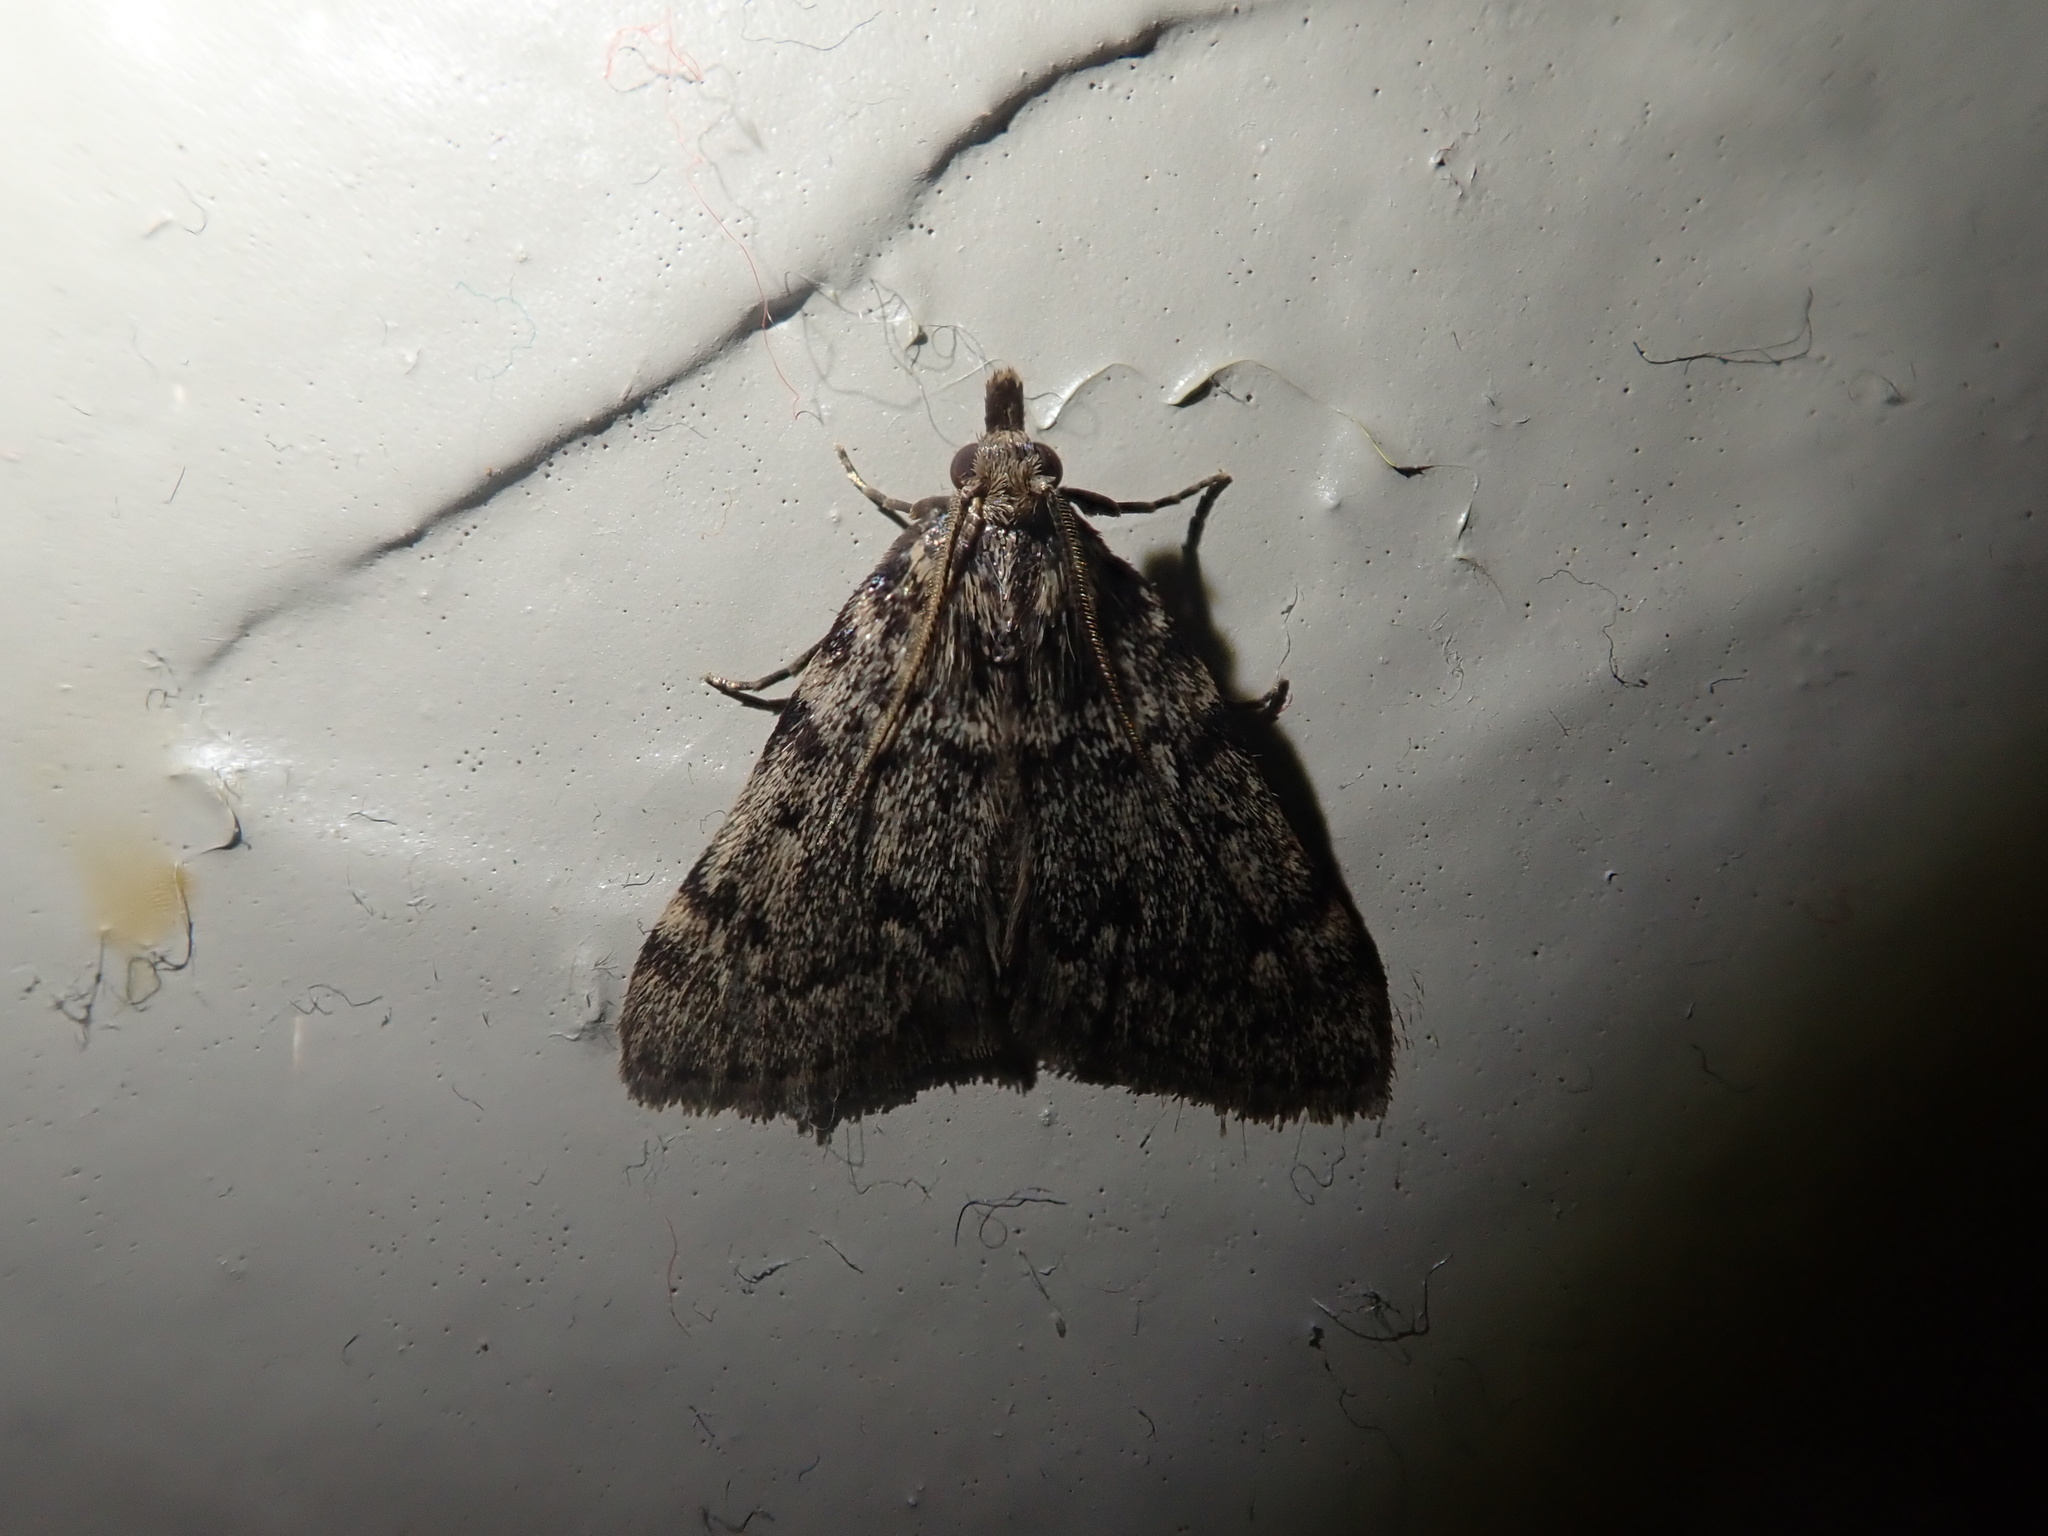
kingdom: Animalia
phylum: Arthropoda
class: Insecta
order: Lepidoptera
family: Pyralidae
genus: Aglossa
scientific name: Aglossa pinguinalis
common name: Large tabby
